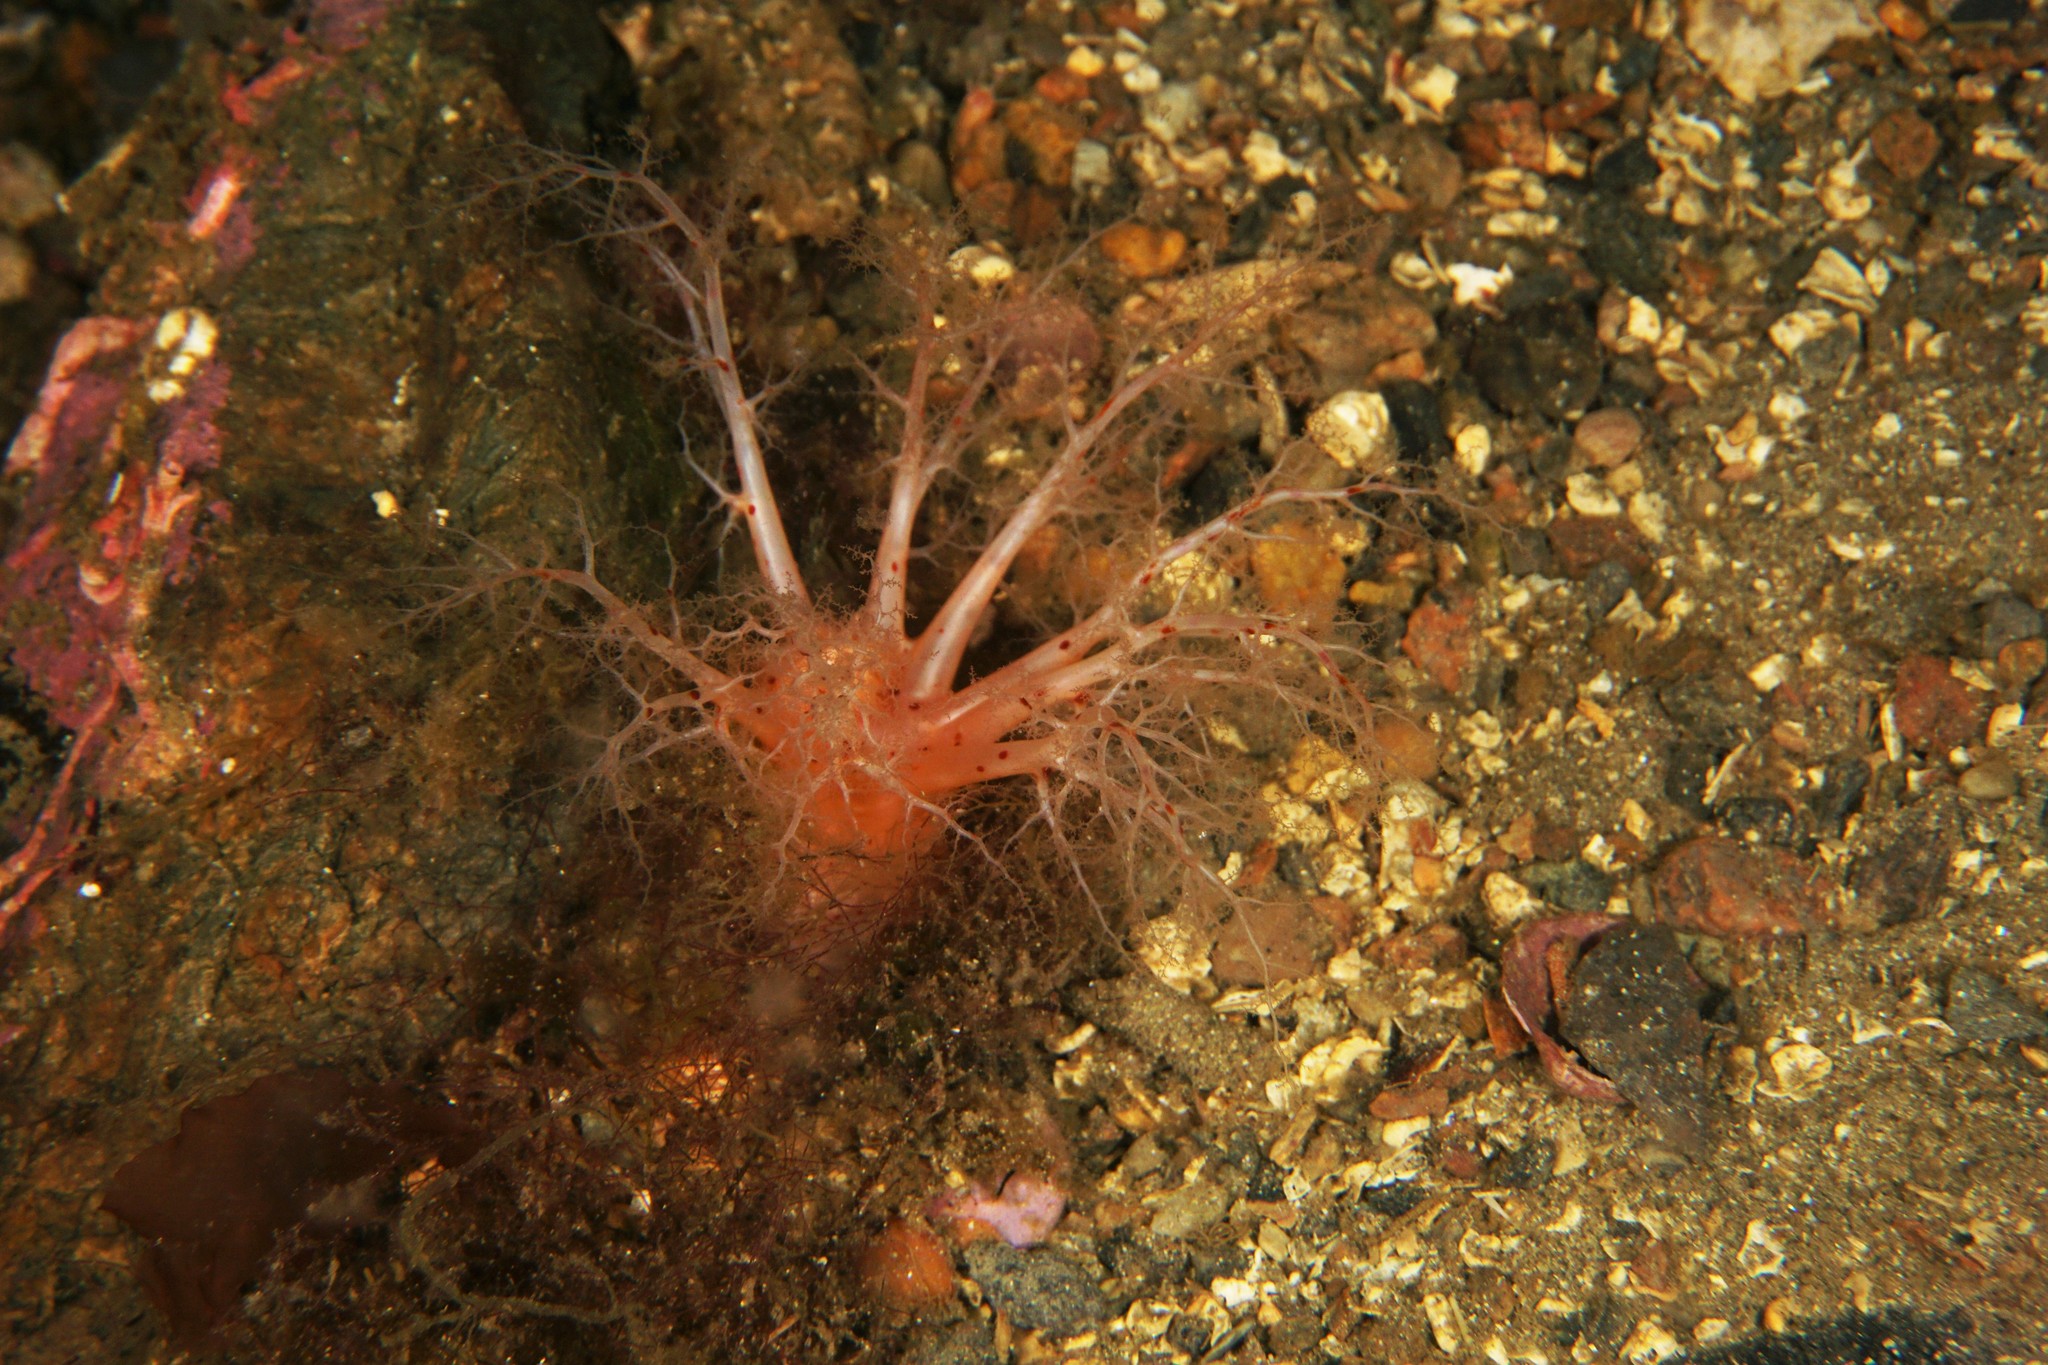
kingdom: Animalia
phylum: Echinodermata
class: Holothuroidea
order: Dendrochirotida
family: Psolidae
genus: Psolus
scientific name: Psolus phantapus
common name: Brown psolus
